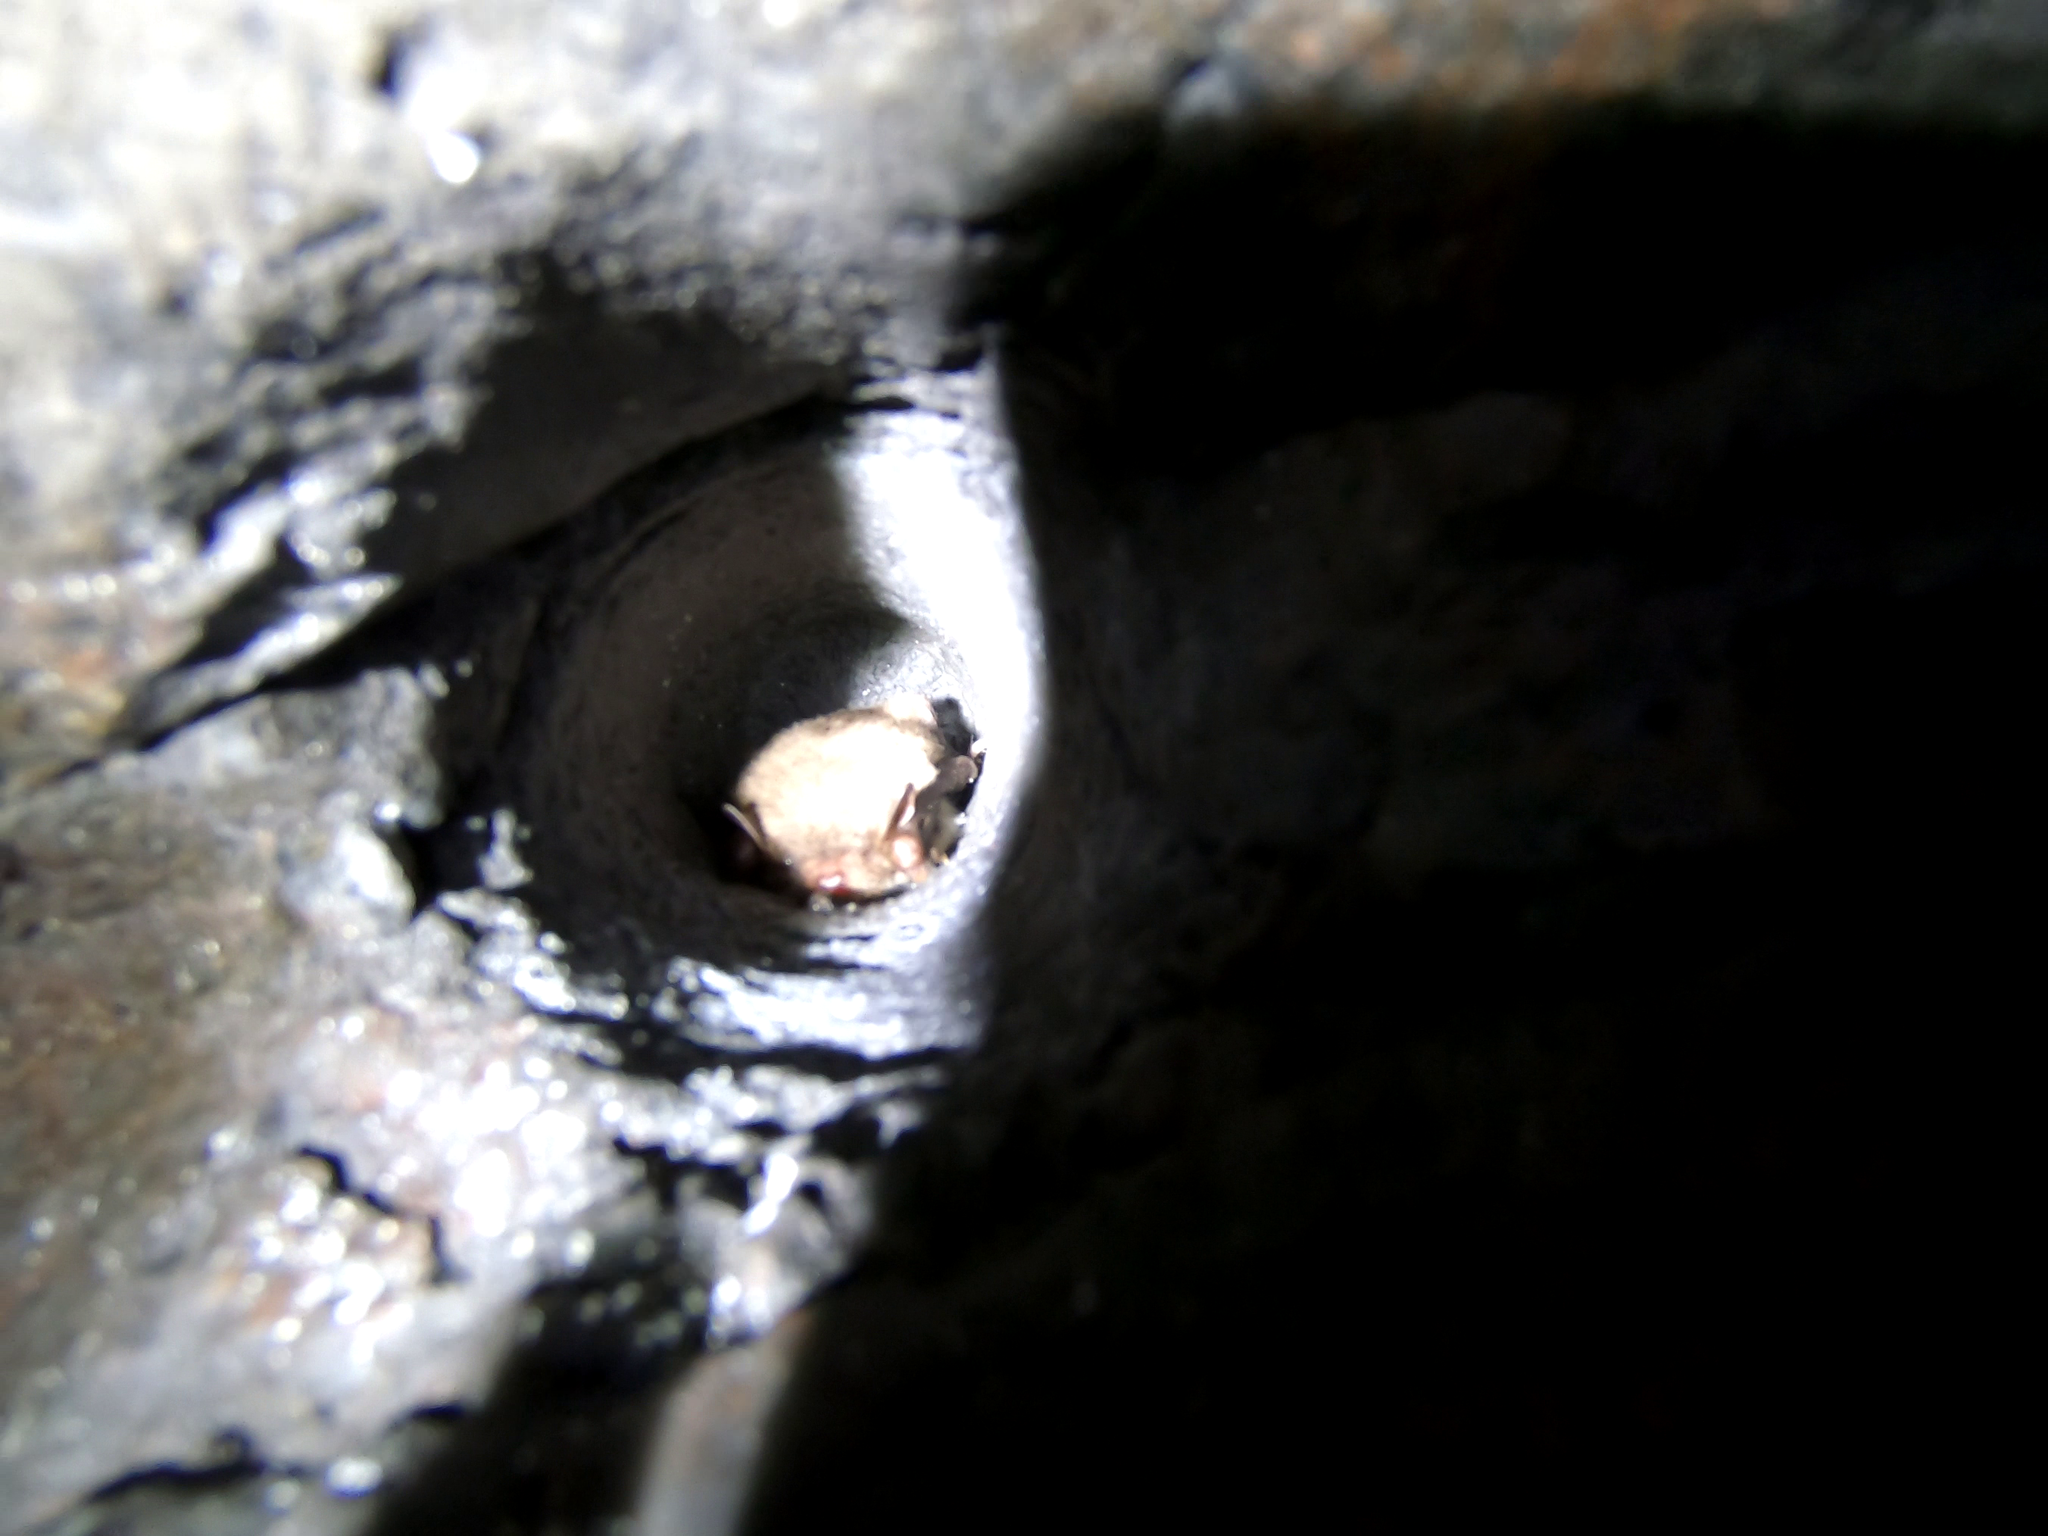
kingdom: Animalia
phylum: Chordata
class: Mammalia
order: Chiroptera
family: Vespertilionidae
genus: Myotis
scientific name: Myotis daubentonii
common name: Daubenton's myotis
